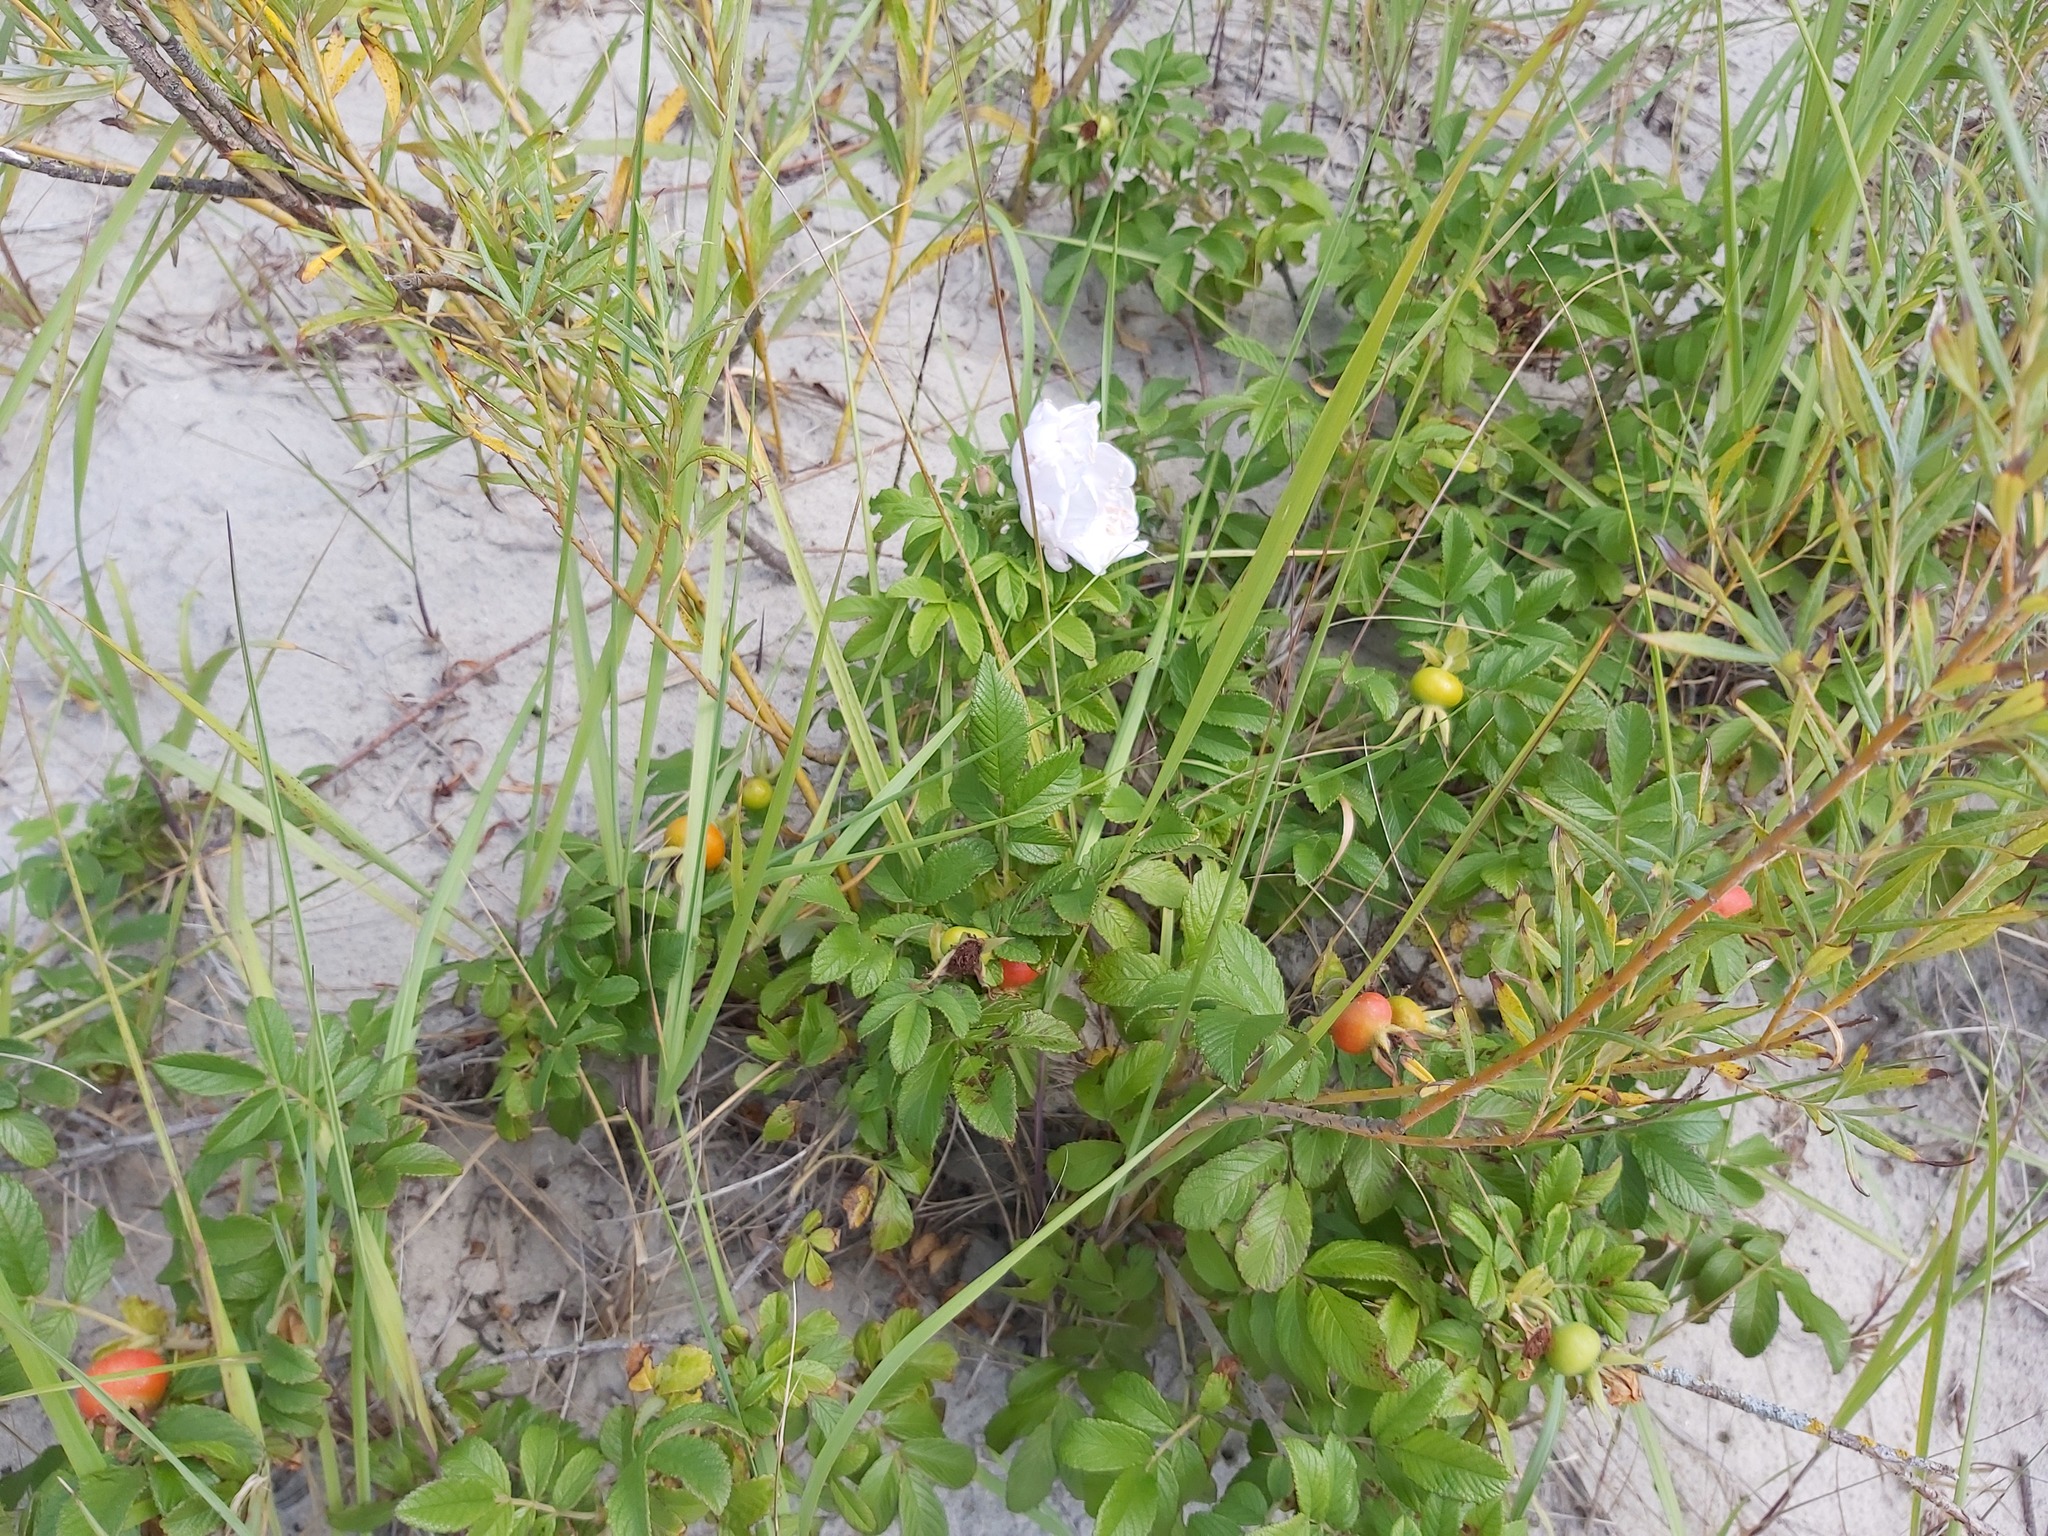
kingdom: Plantae
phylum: Tracheophyta
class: Magnoliopsida
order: Rosales
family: Rosaceae
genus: Rosa
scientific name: Rosa rugosa
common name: Japanese rose
